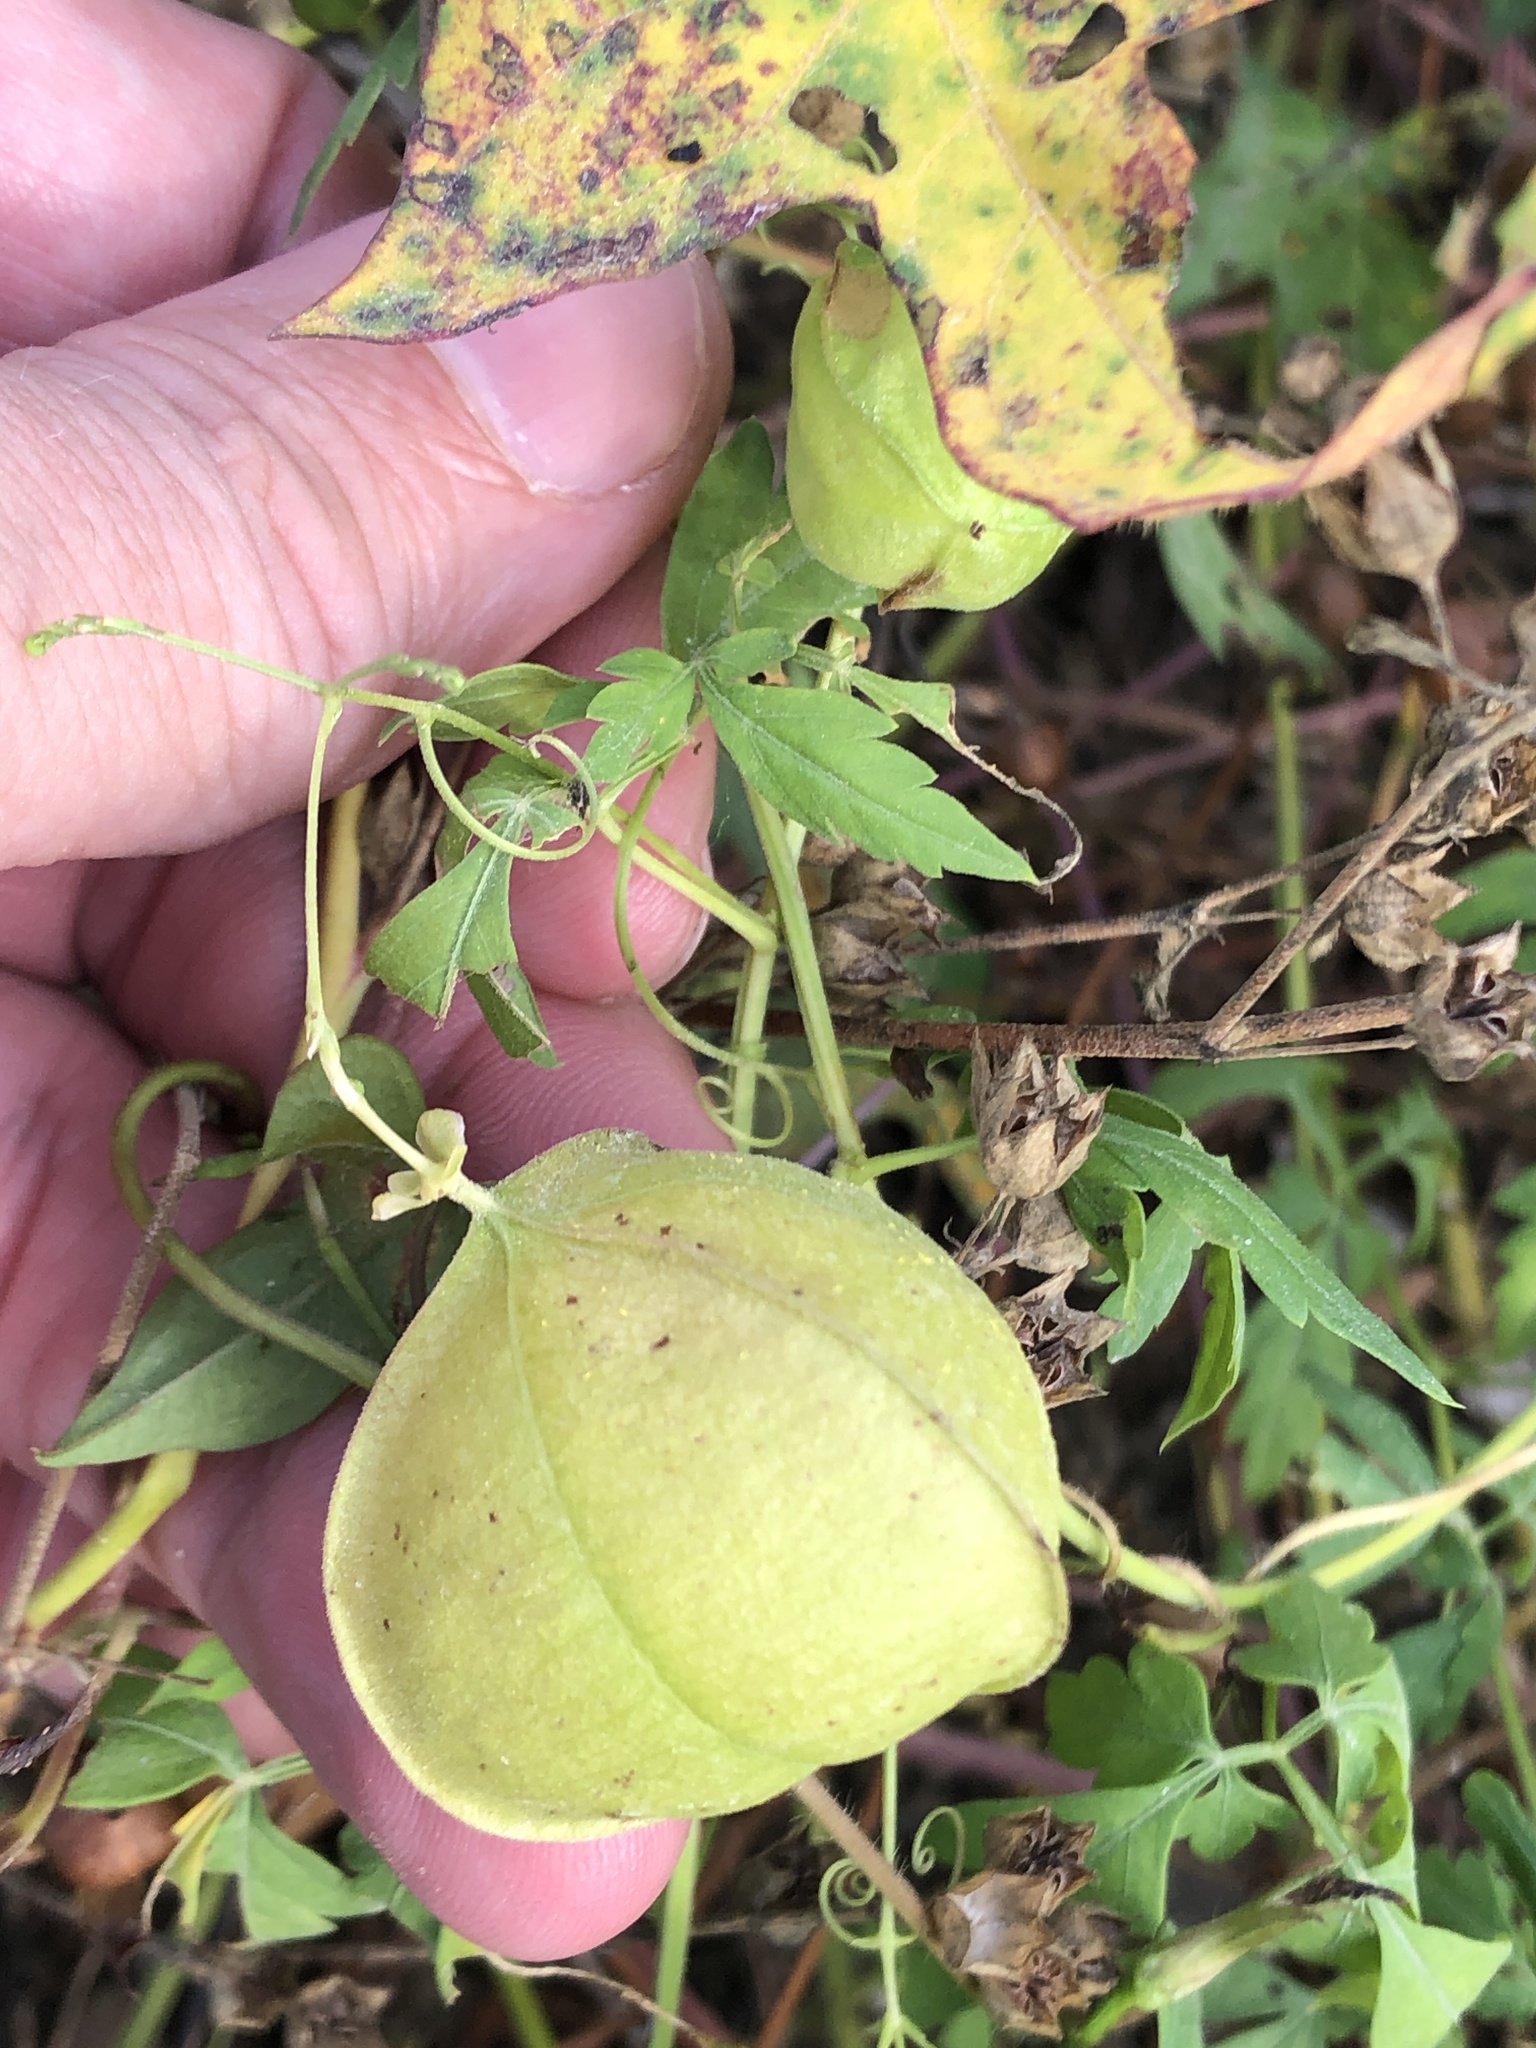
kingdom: Plantae
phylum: Tracheophyta
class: Magnoliopsida
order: Sapindales
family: Sapindaceae
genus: Cardiospermum
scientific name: Cardiospermum halicacabum
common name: Balloon vine
